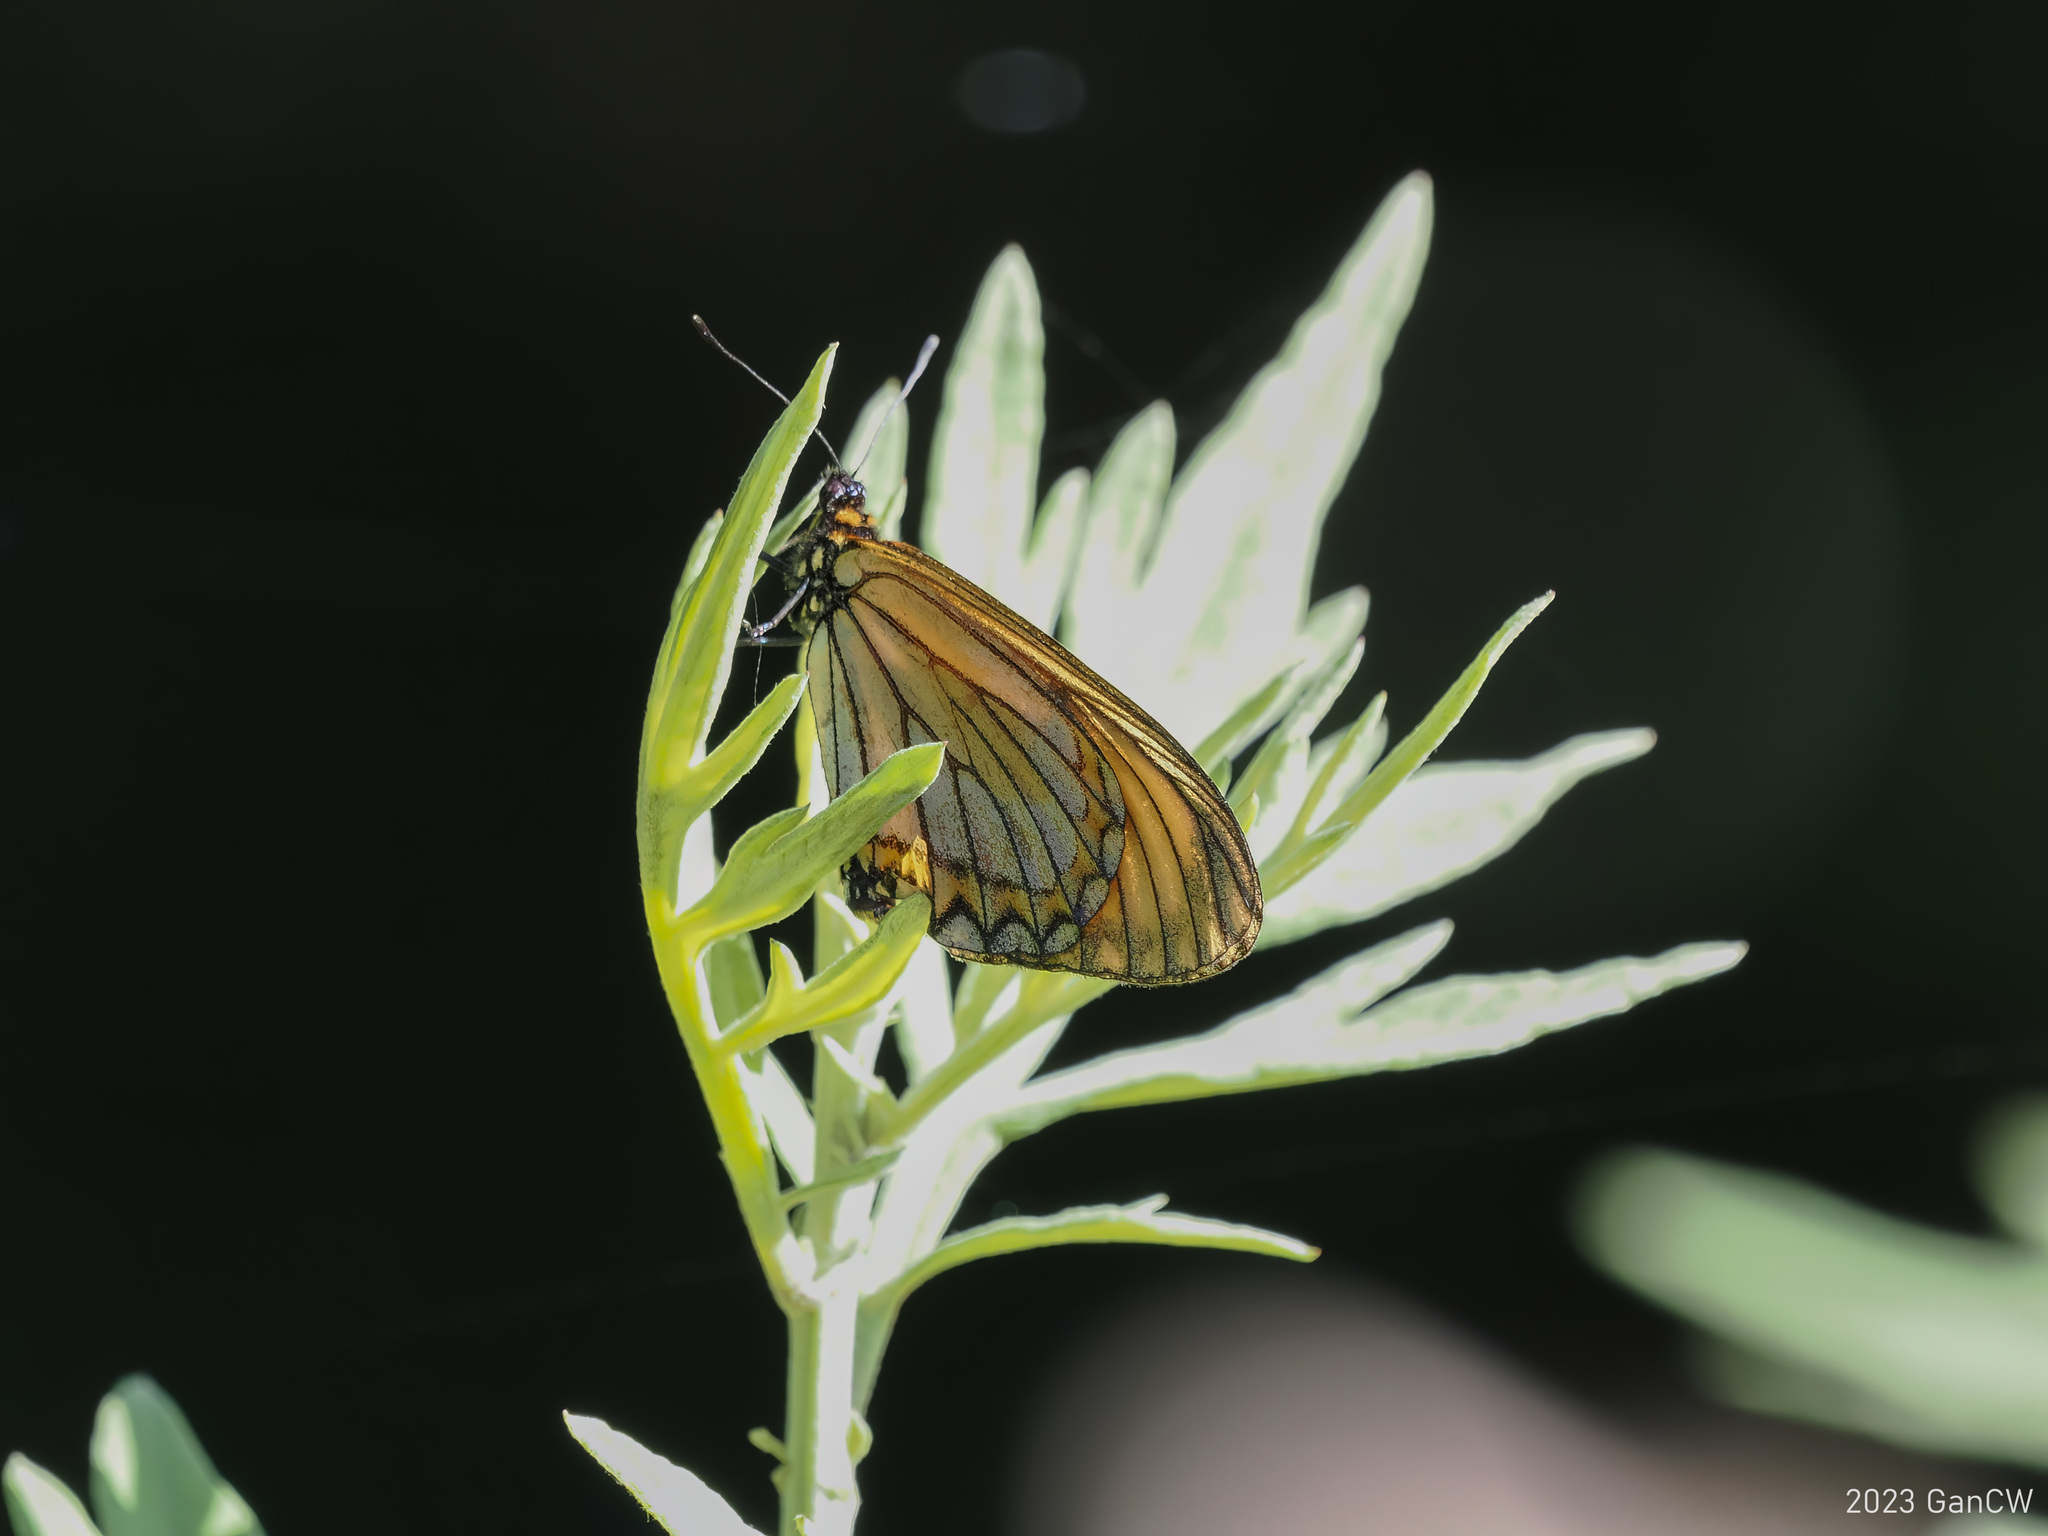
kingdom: Animalia
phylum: Arthropoda
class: Insecta
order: Lepidoptera
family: Nymphalidae
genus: Acraea
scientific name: Acraea Telchinia issoria
